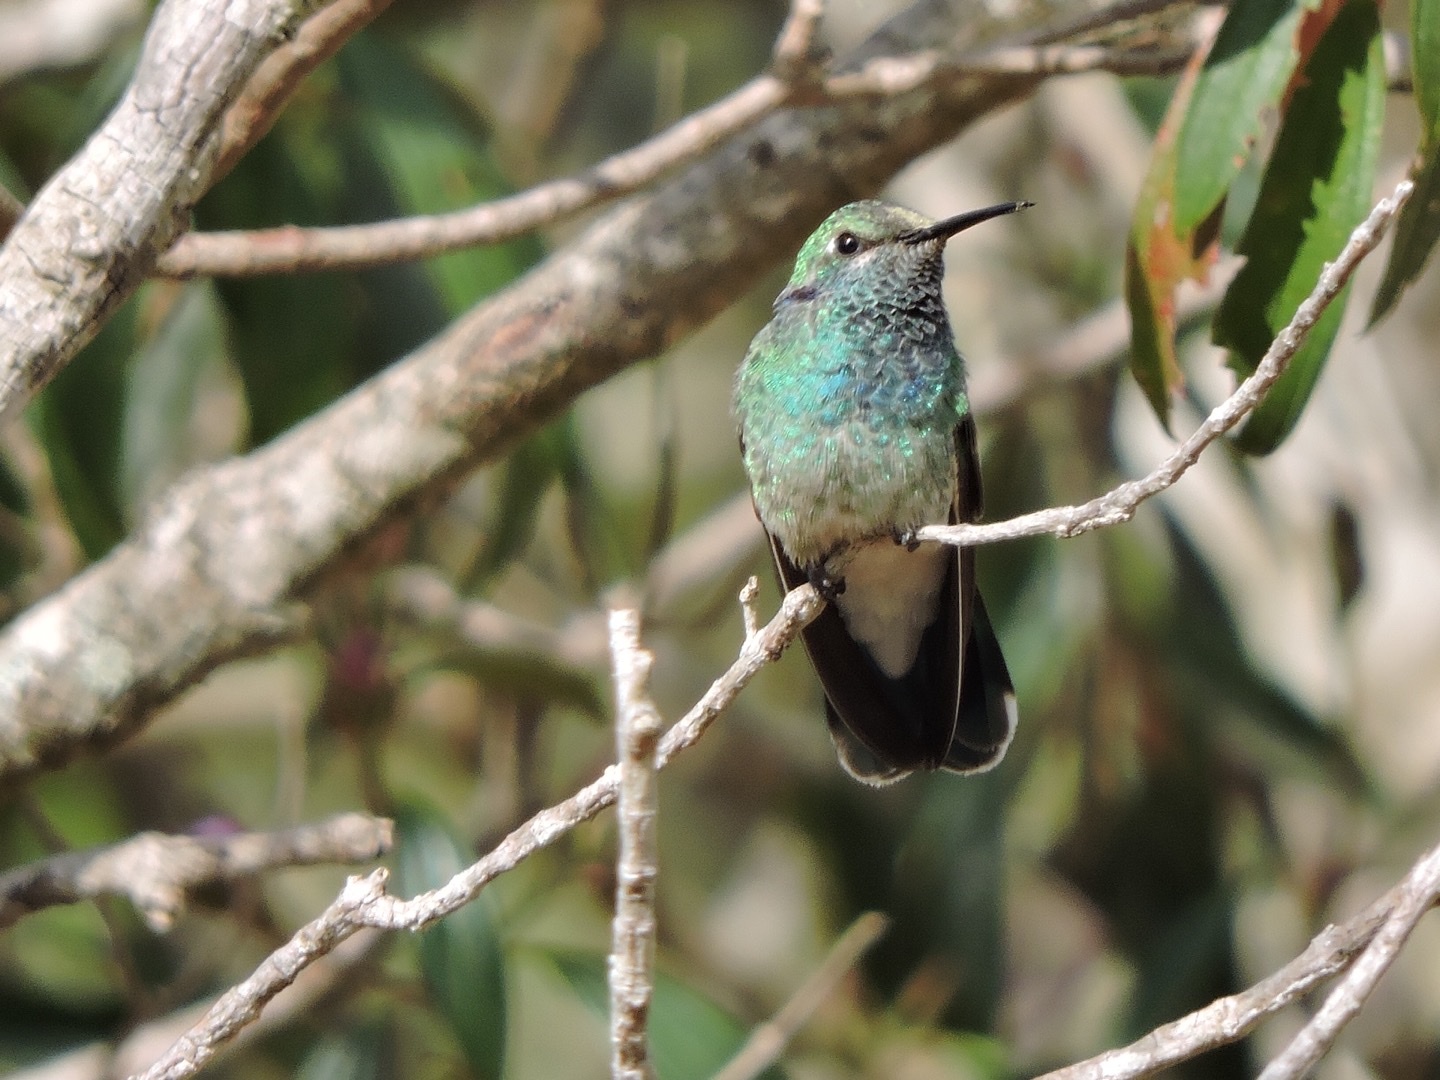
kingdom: Animalia
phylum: Chordata
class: Aves
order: Apodiformes
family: Trochilidae
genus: Colibri
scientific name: Colibri serrirostris
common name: White-vented violetear
